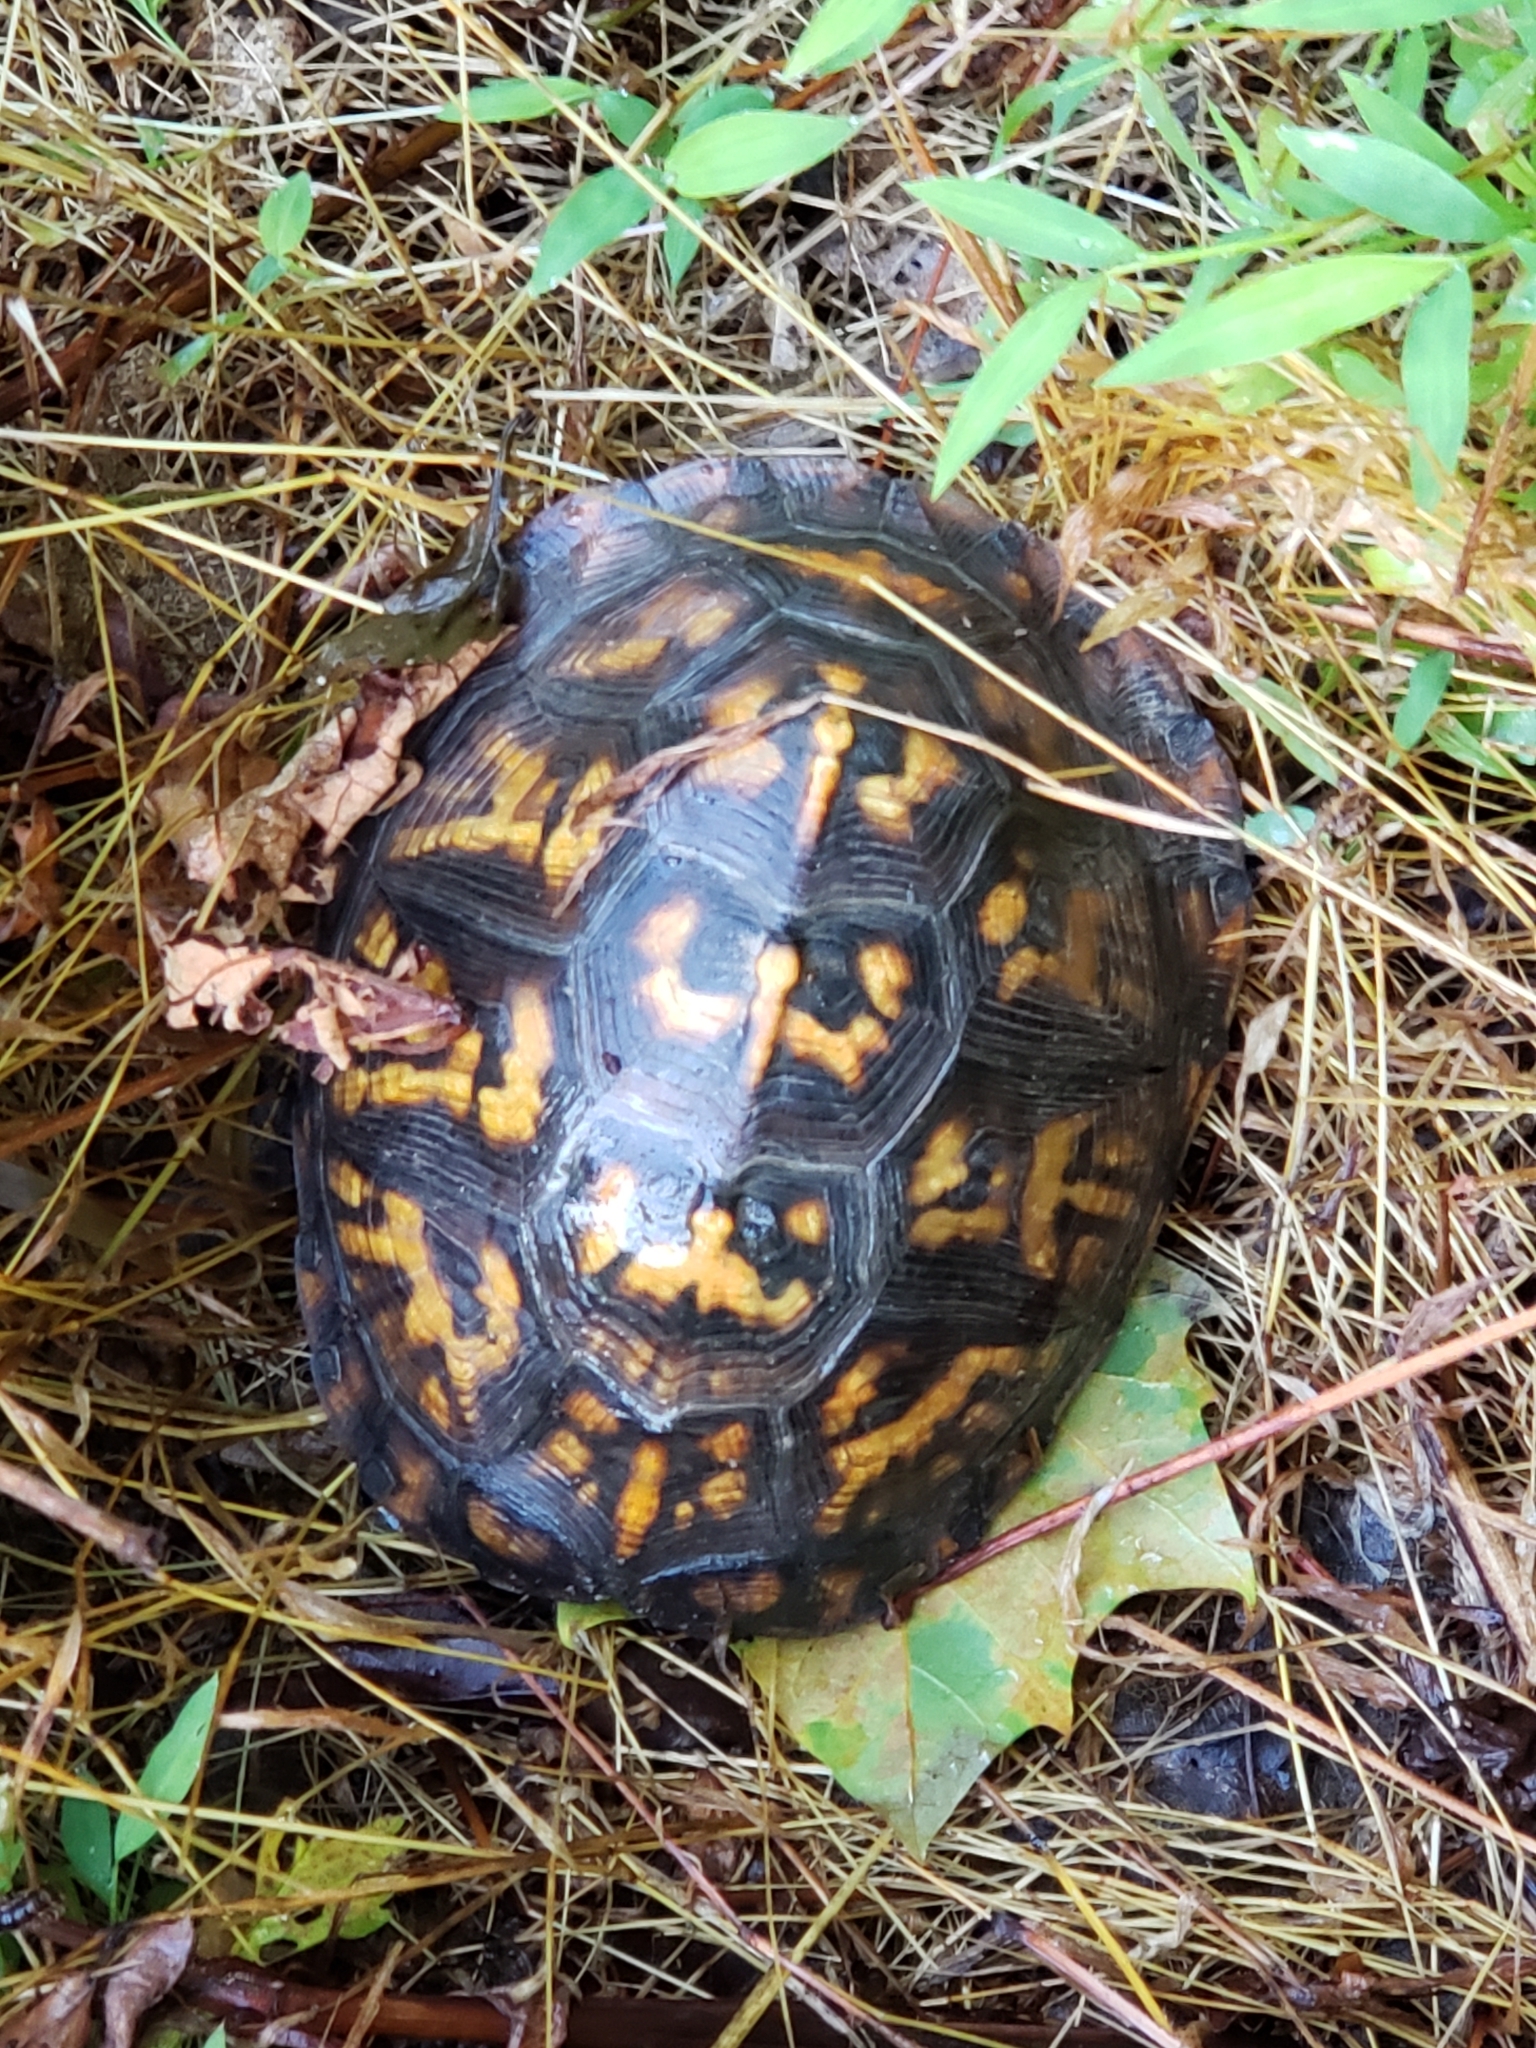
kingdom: Animalia
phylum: Chordata
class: Testudines
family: Emydidae
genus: Terrapene
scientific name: Terrapene carolina
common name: Common box turtle
